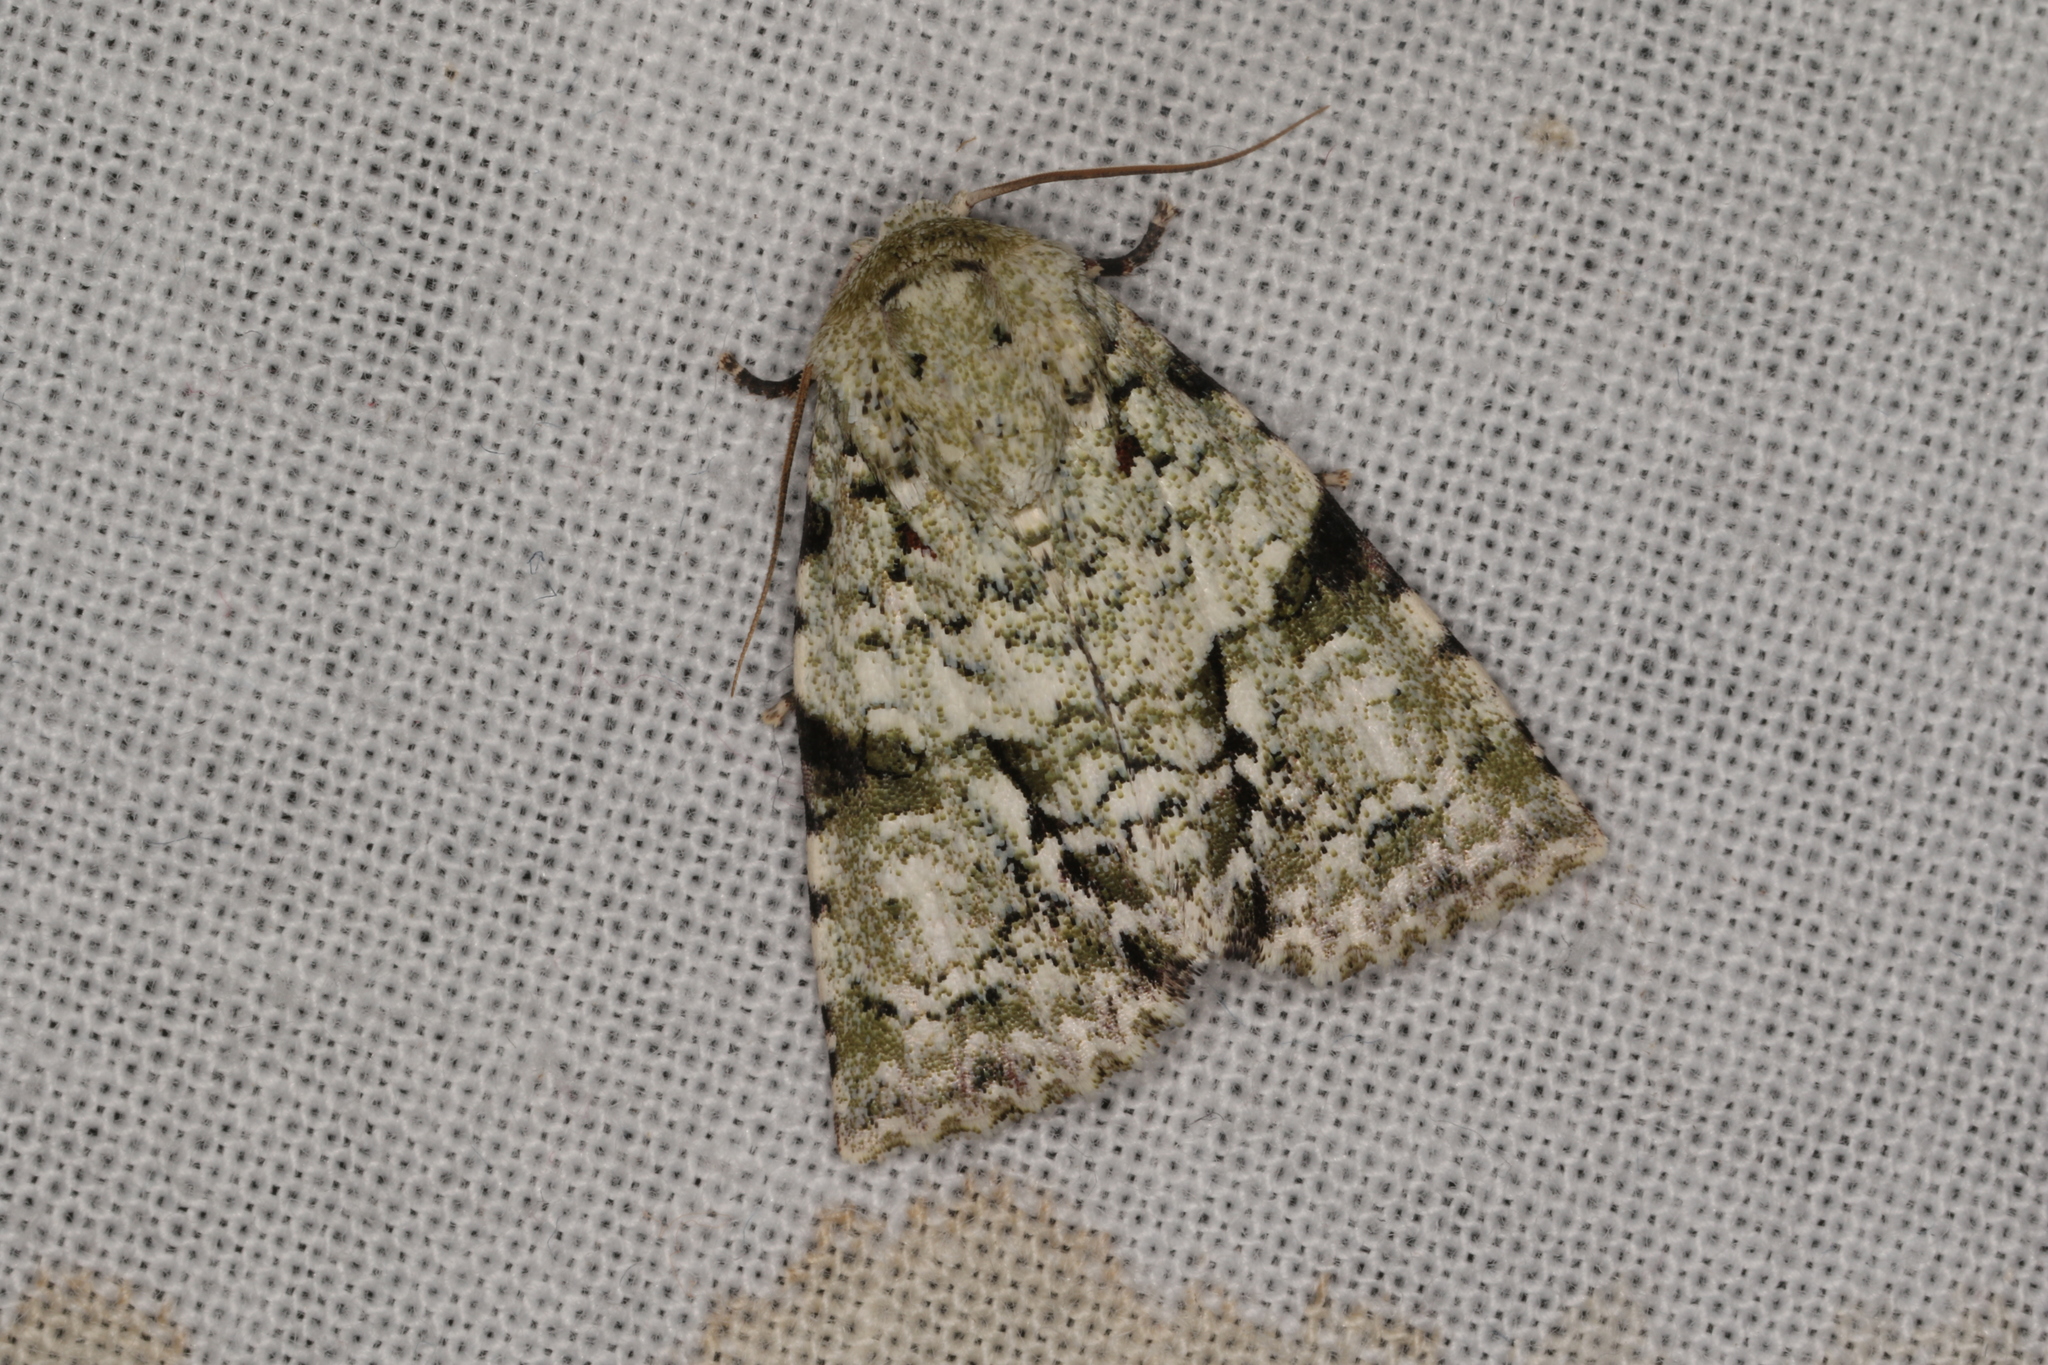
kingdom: Animalia
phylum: Arthropoda
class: Insecta
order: Lepidoptera
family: Noctuidae
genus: Acronicta
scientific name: Acronicta psorallina
